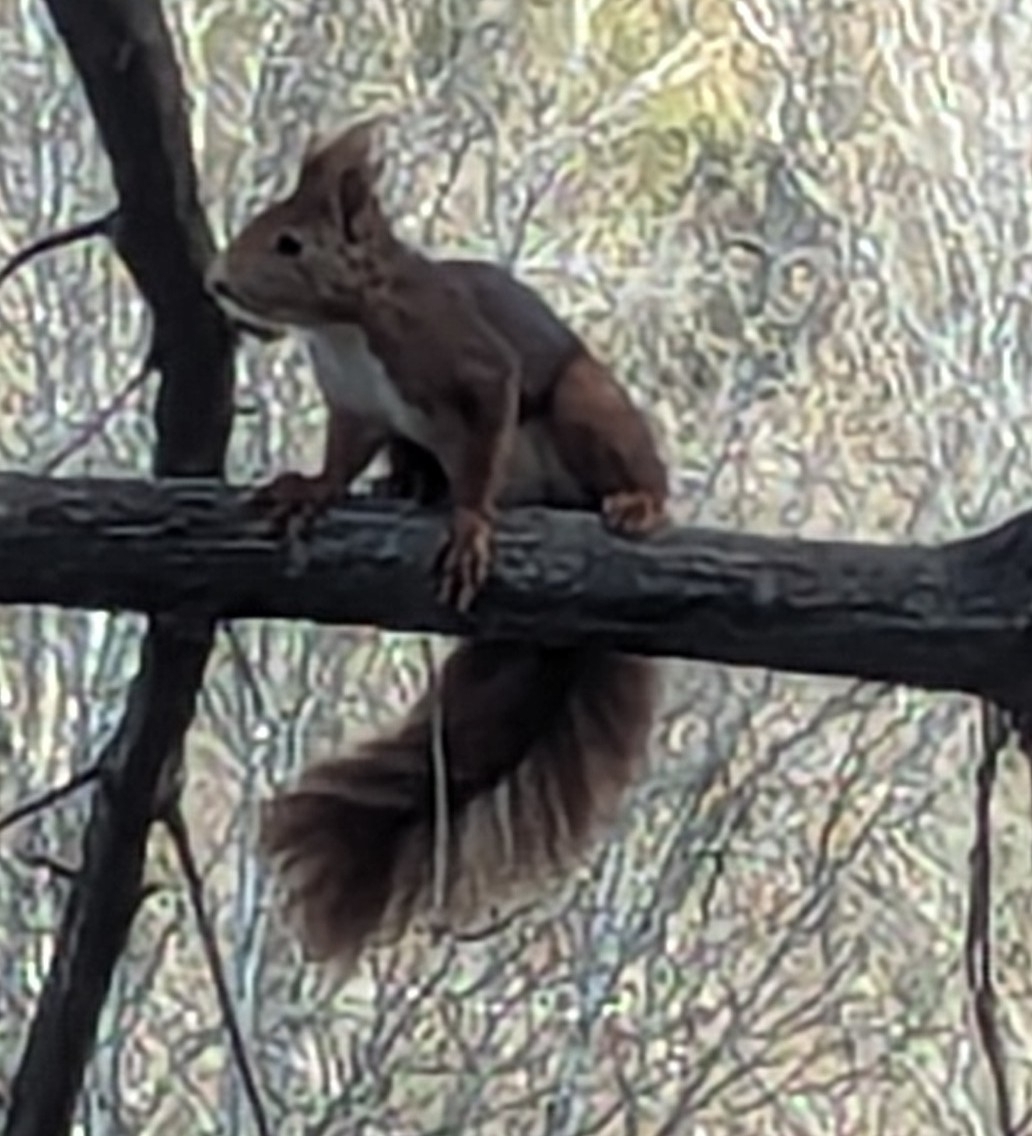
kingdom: Animalia
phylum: Chordata
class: Mammalia
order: Rodentia
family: Sciuridae
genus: Sciurus
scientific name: Sciurus vulgaris
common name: Eurasian red squirrel
